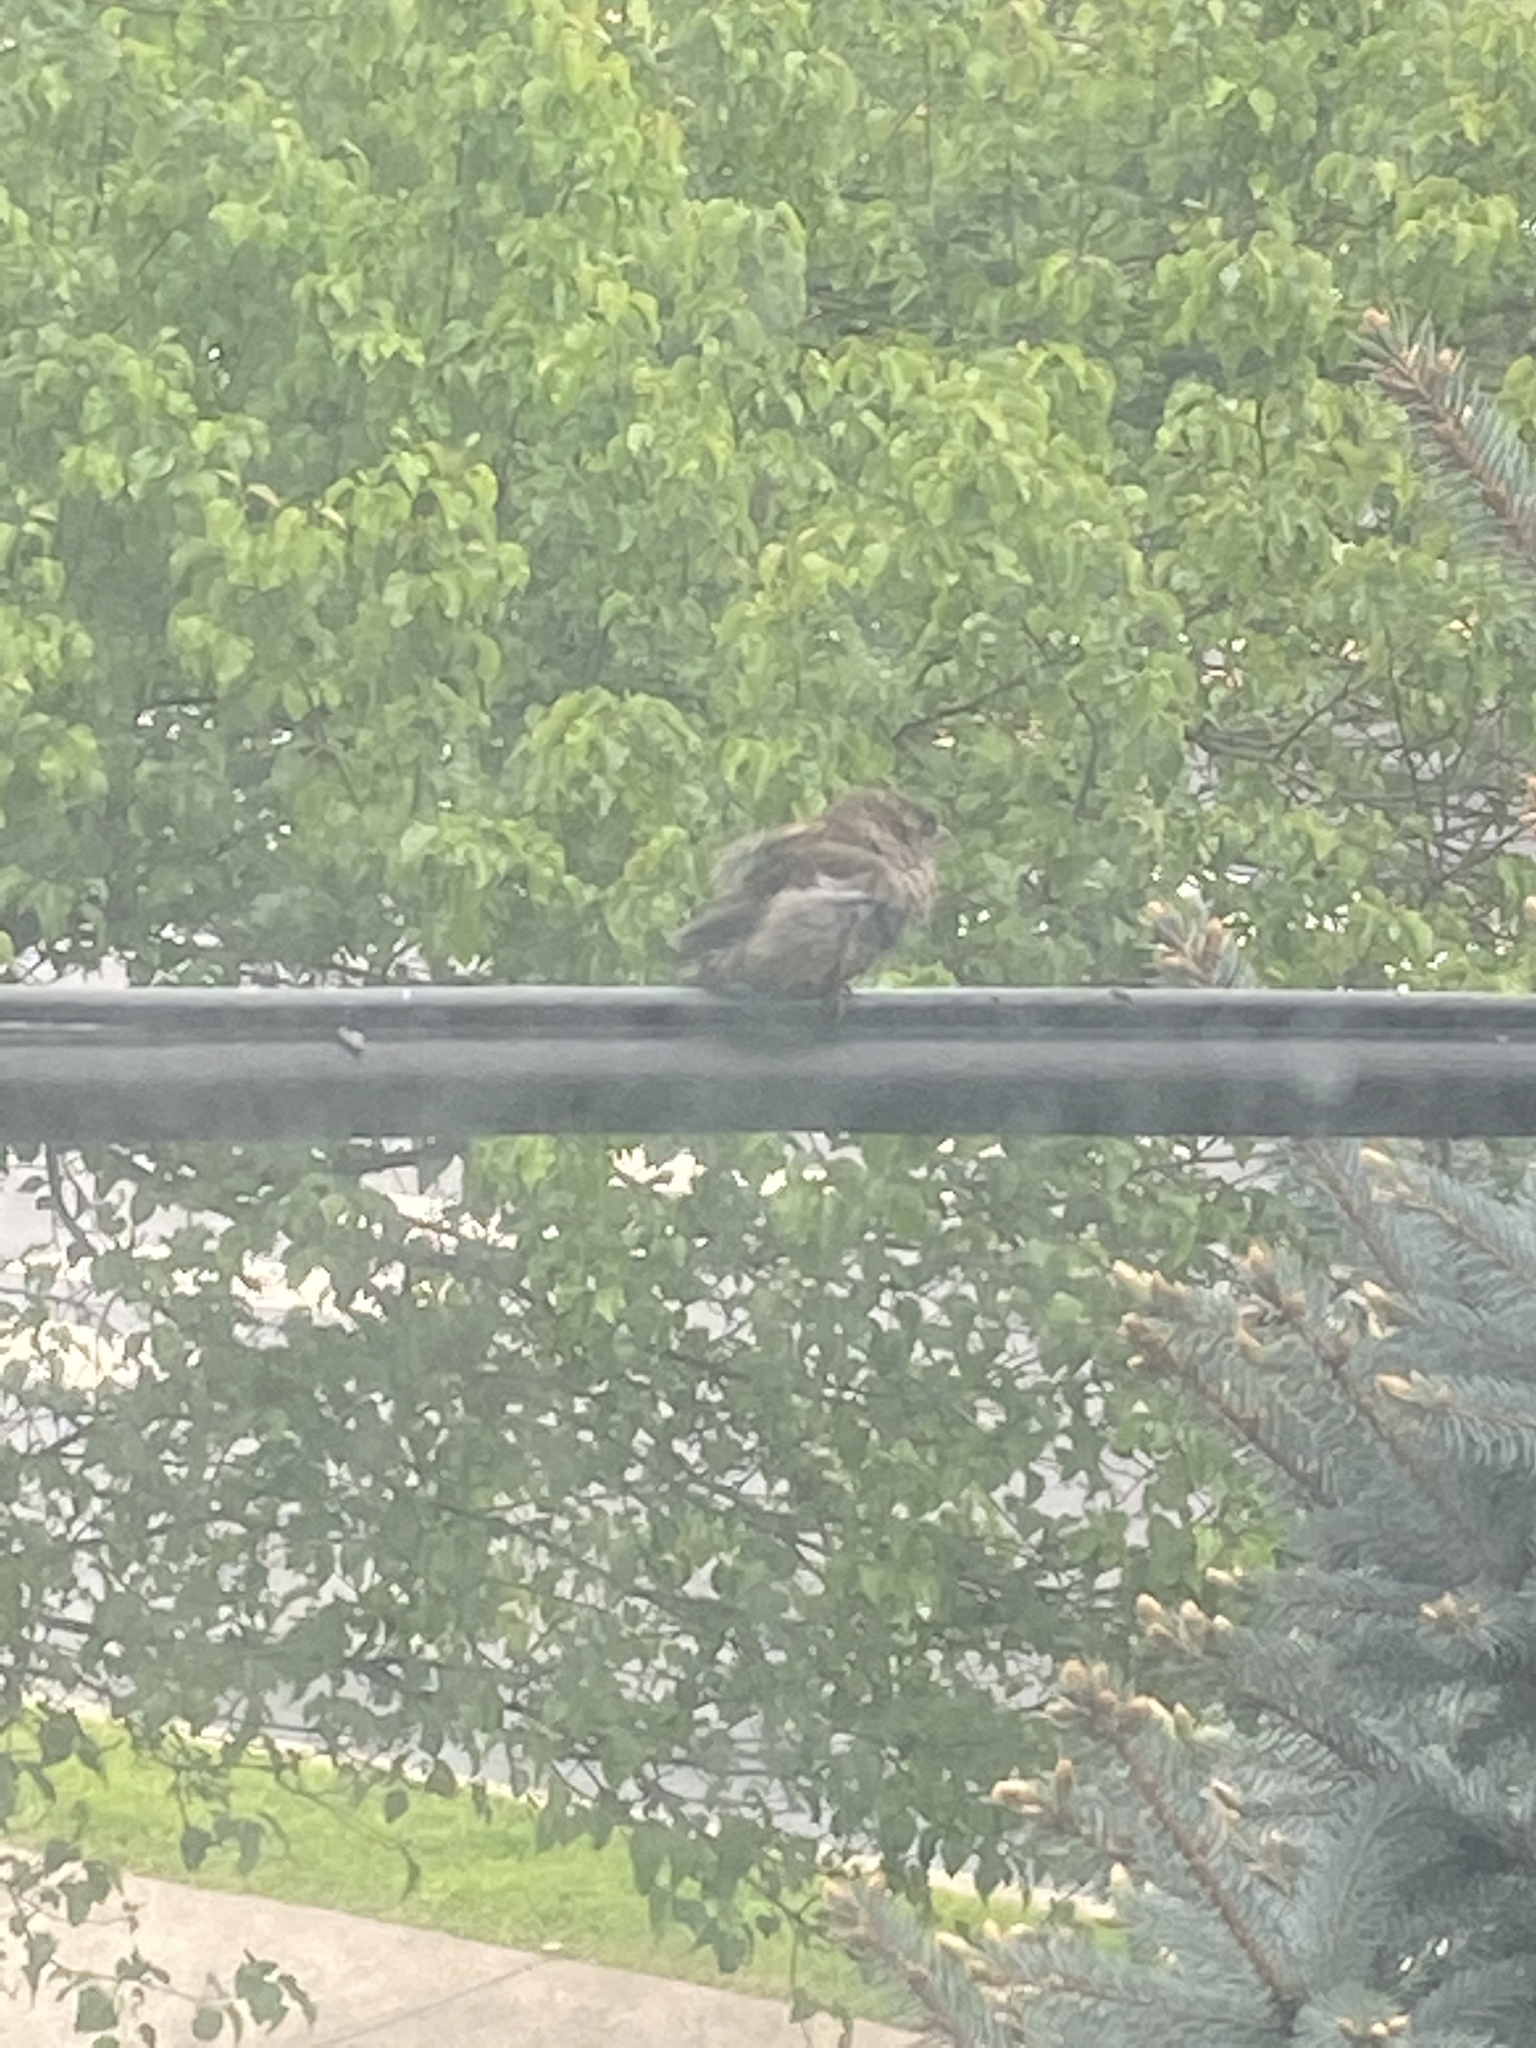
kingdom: Animalia
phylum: Chordata
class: Aves
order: Passeriformes
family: Passeridae
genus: Passer
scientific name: Passer domesticus
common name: House sparrow
